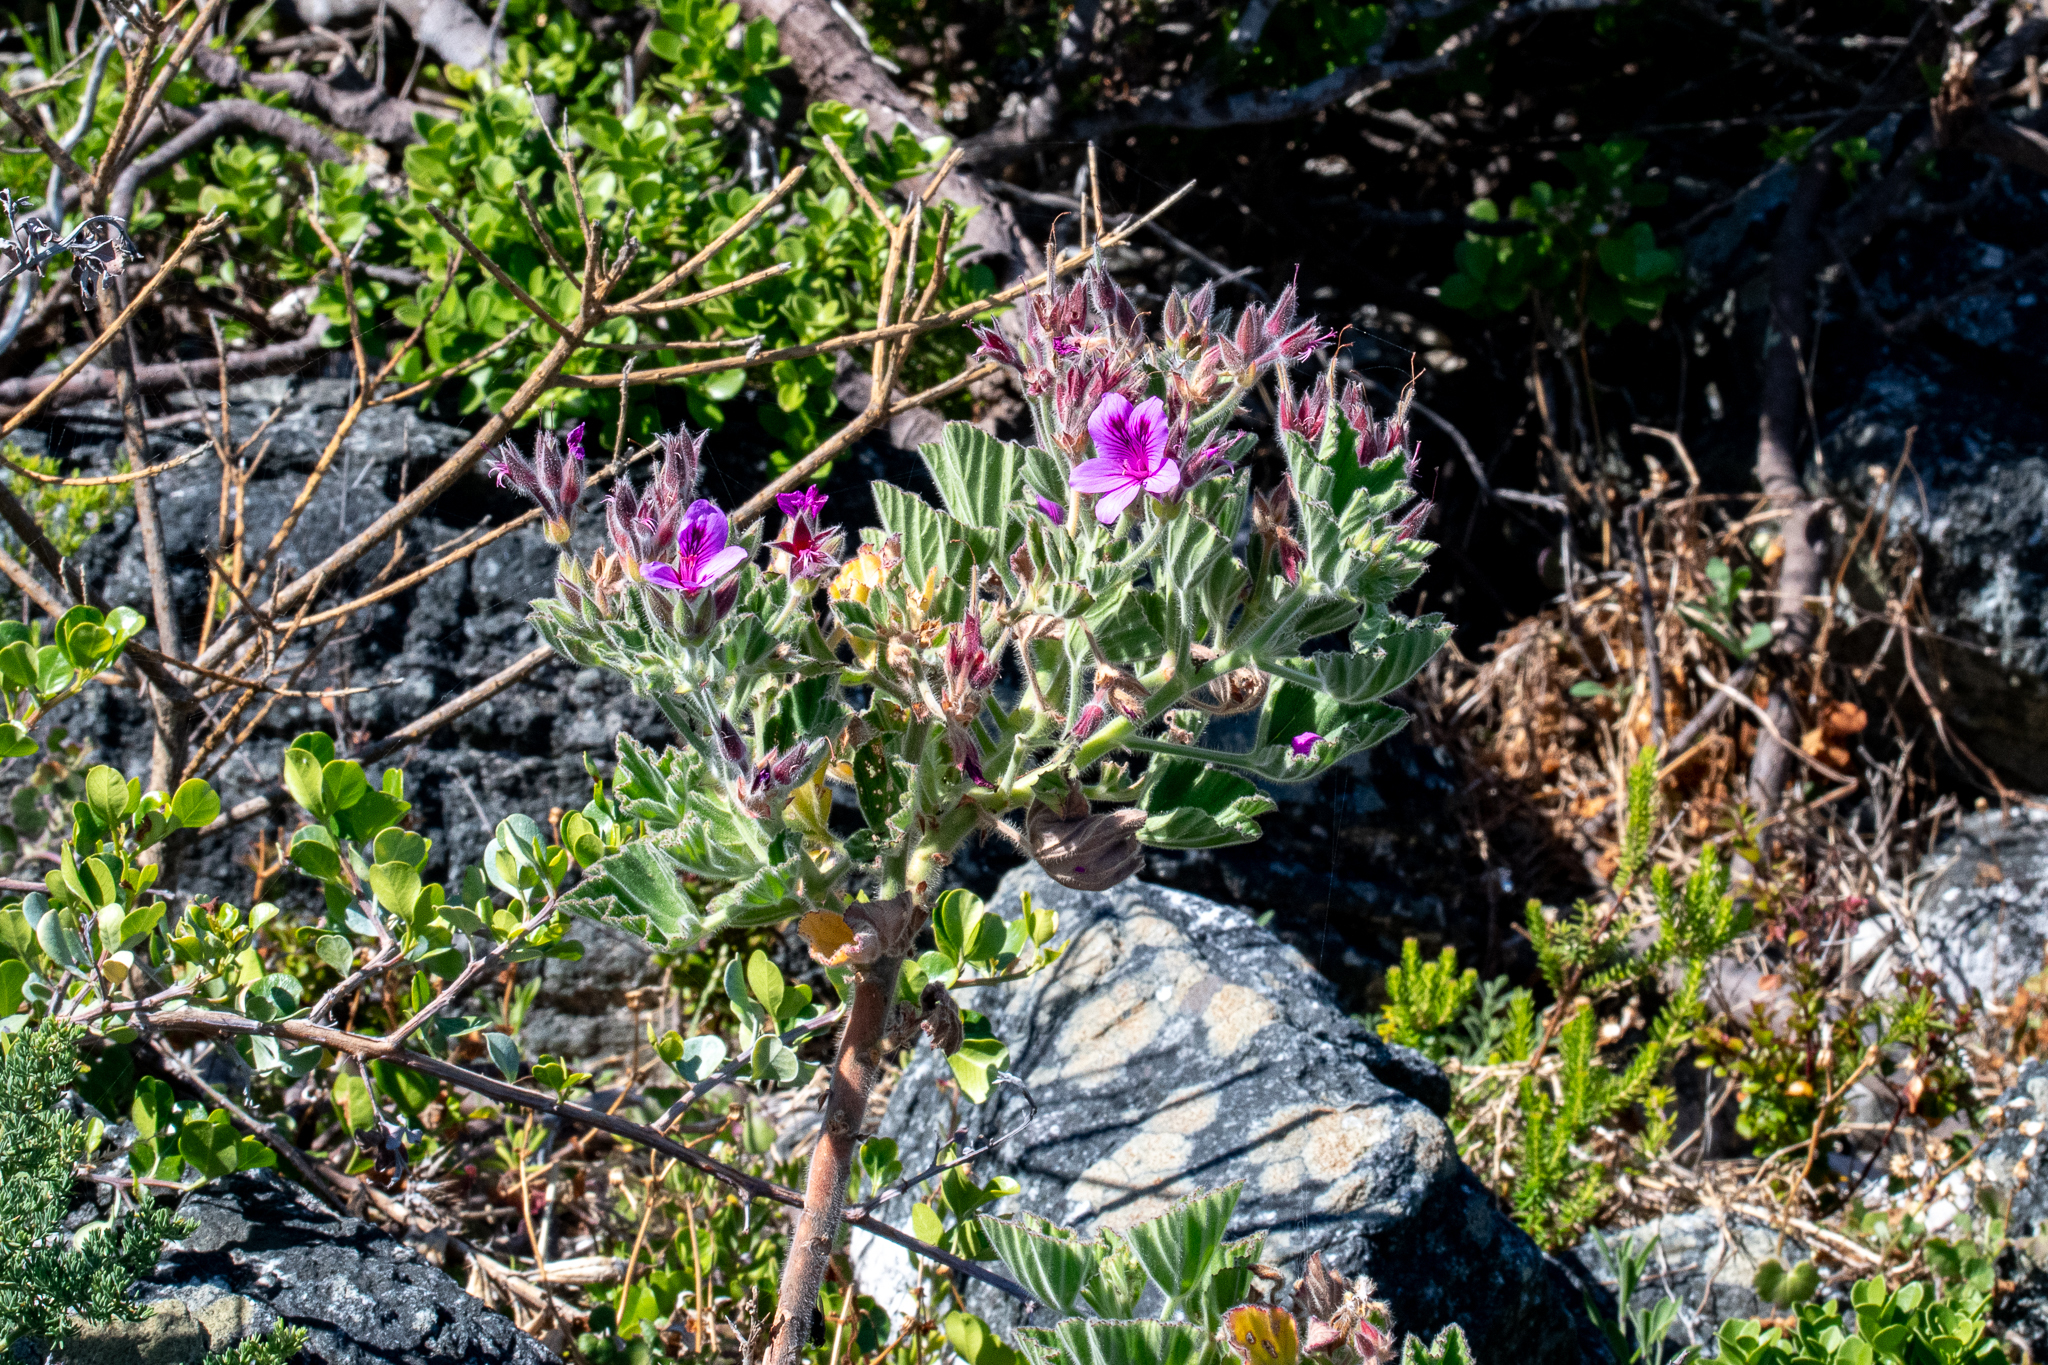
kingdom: Plantae
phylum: Tracheophyta
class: Magnoliopsida
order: Geraniales
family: Geraniaceae
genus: Pelargonium
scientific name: Pelargonium cucullatum
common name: Tree pelargonium
